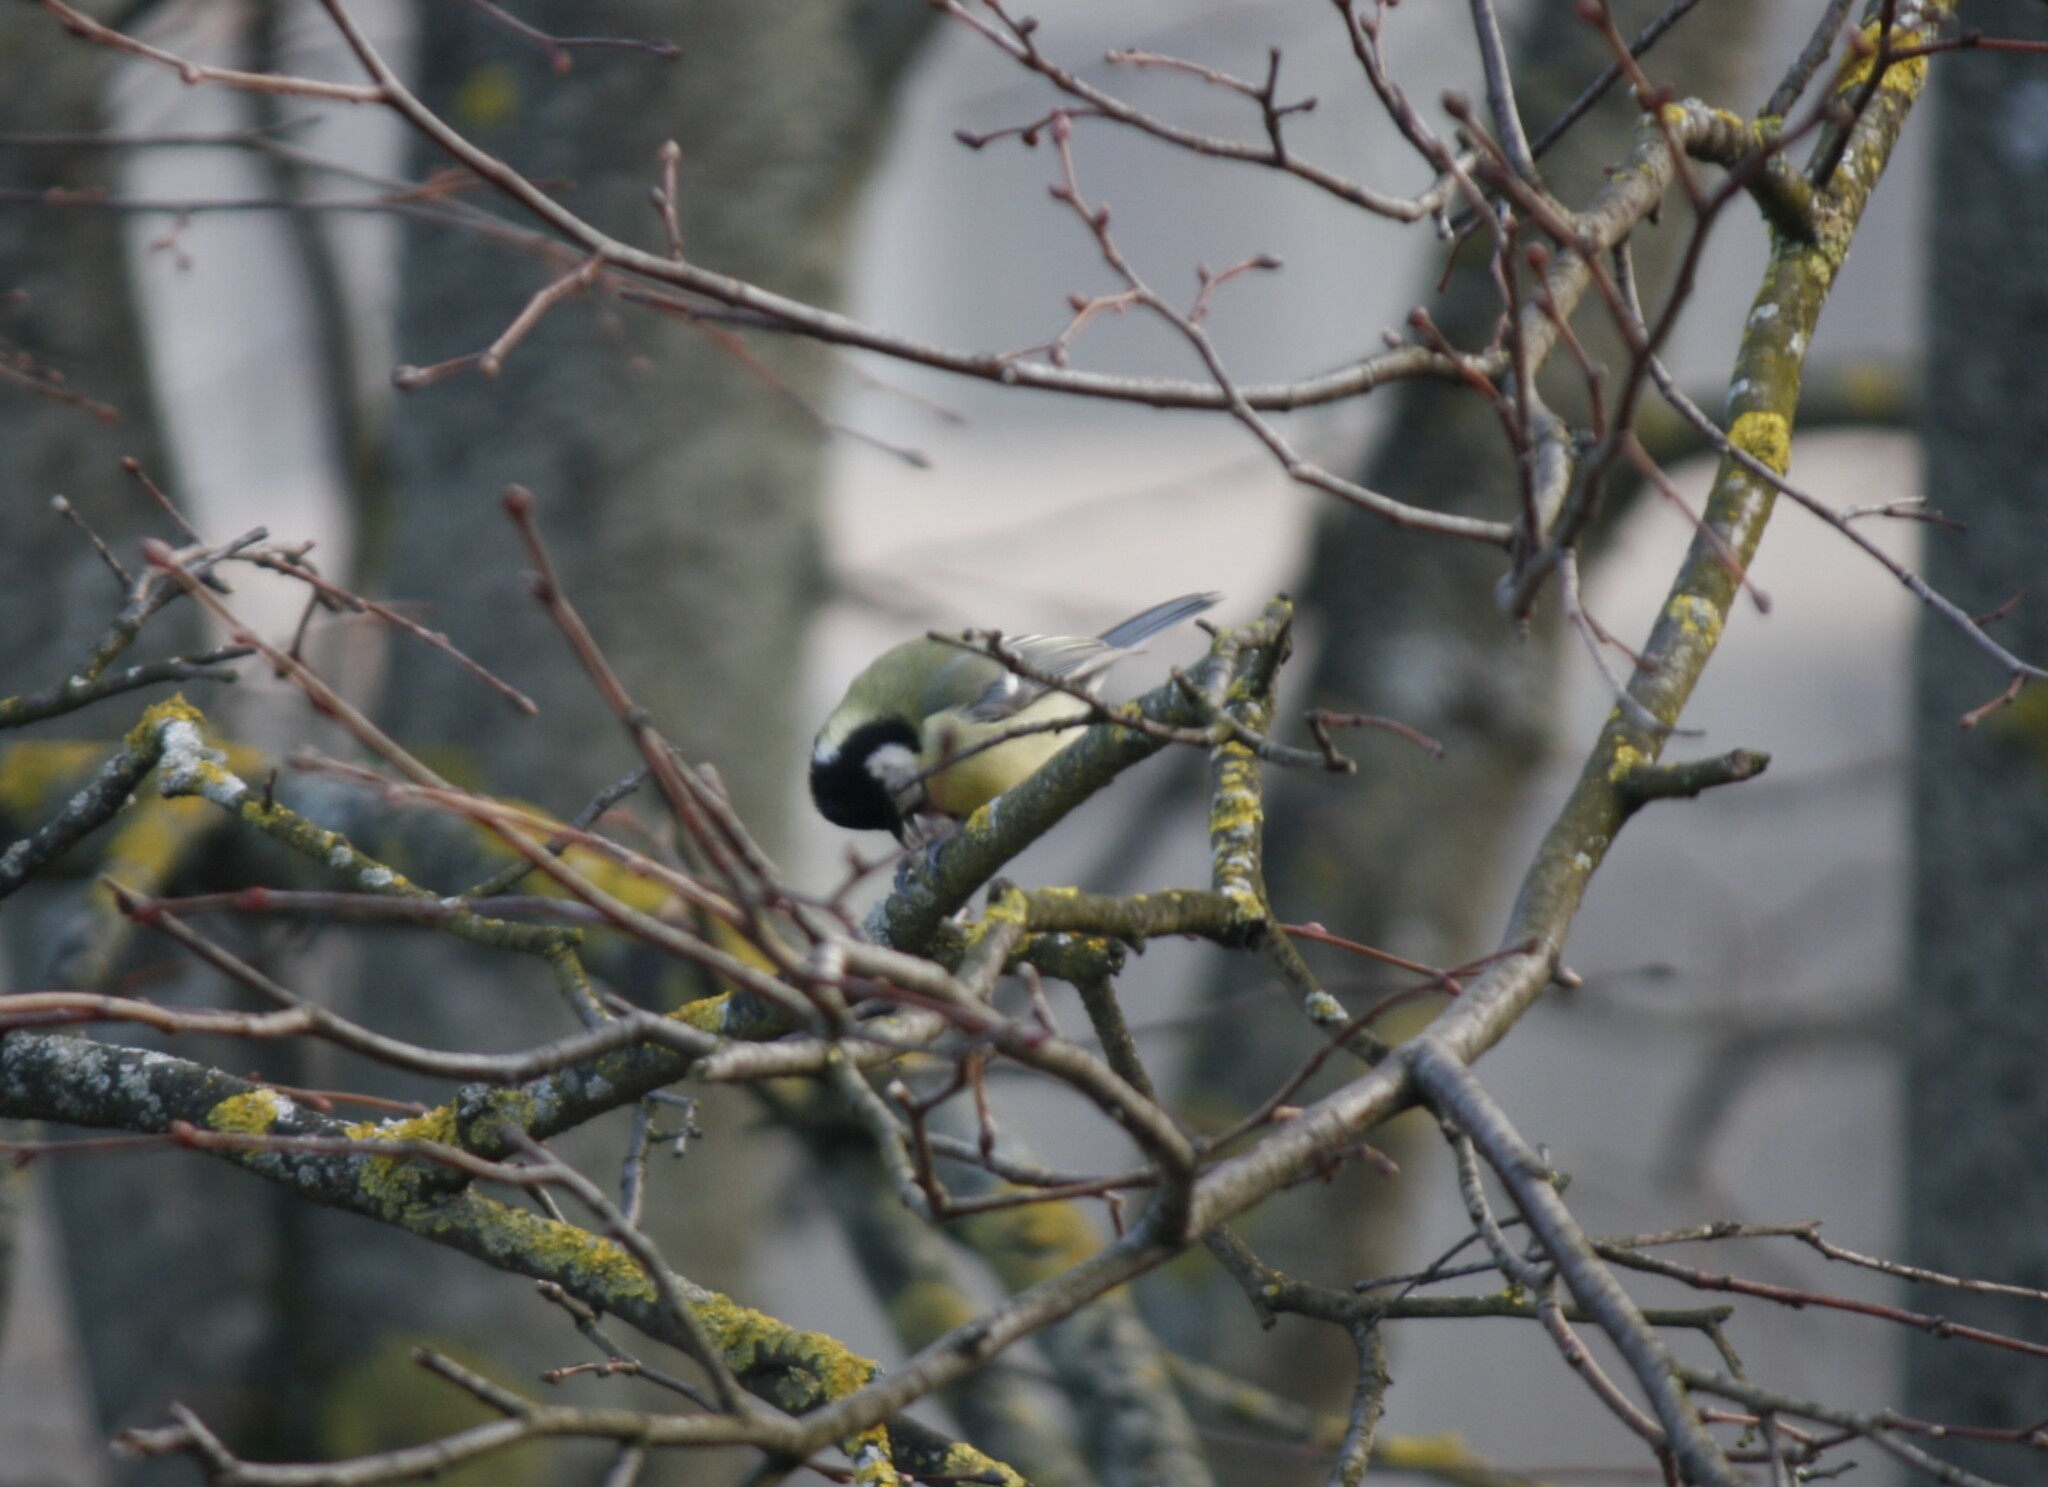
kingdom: Animalia
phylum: Chordata
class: Aves
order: Passeriformes
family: Paridae
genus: Parus
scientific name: Parus major
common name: Great tit
